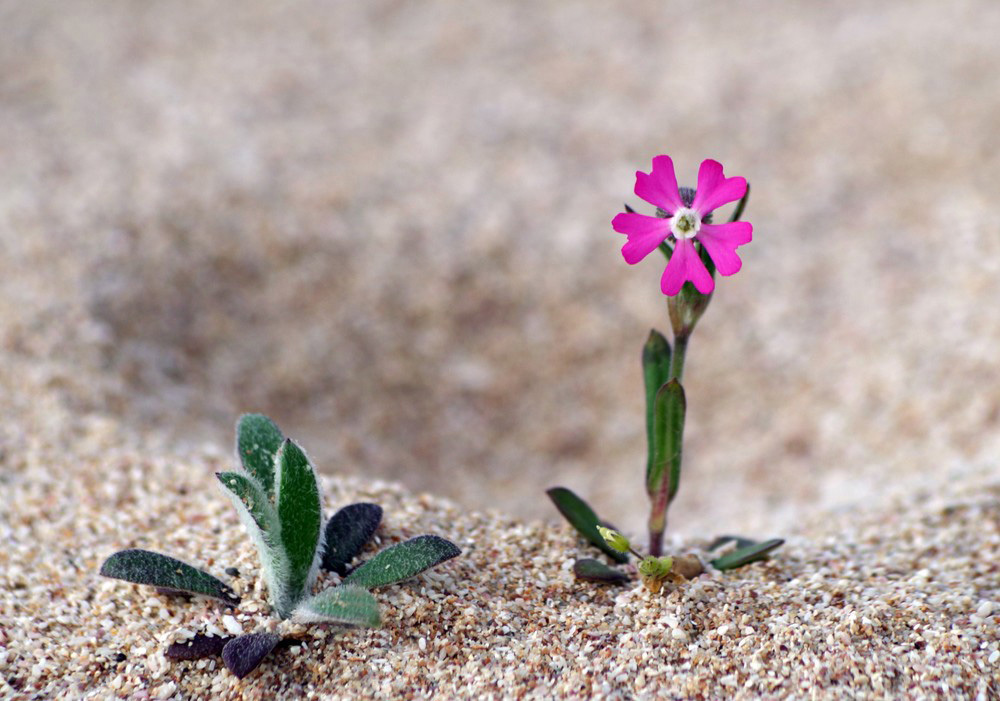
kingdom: Plantae
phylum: Tracheophyta
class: Magnoliopsida
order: Caryophyllales
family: Caryophyllaceae
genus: Silene
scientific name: Silene conica
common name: Sand catchfly
